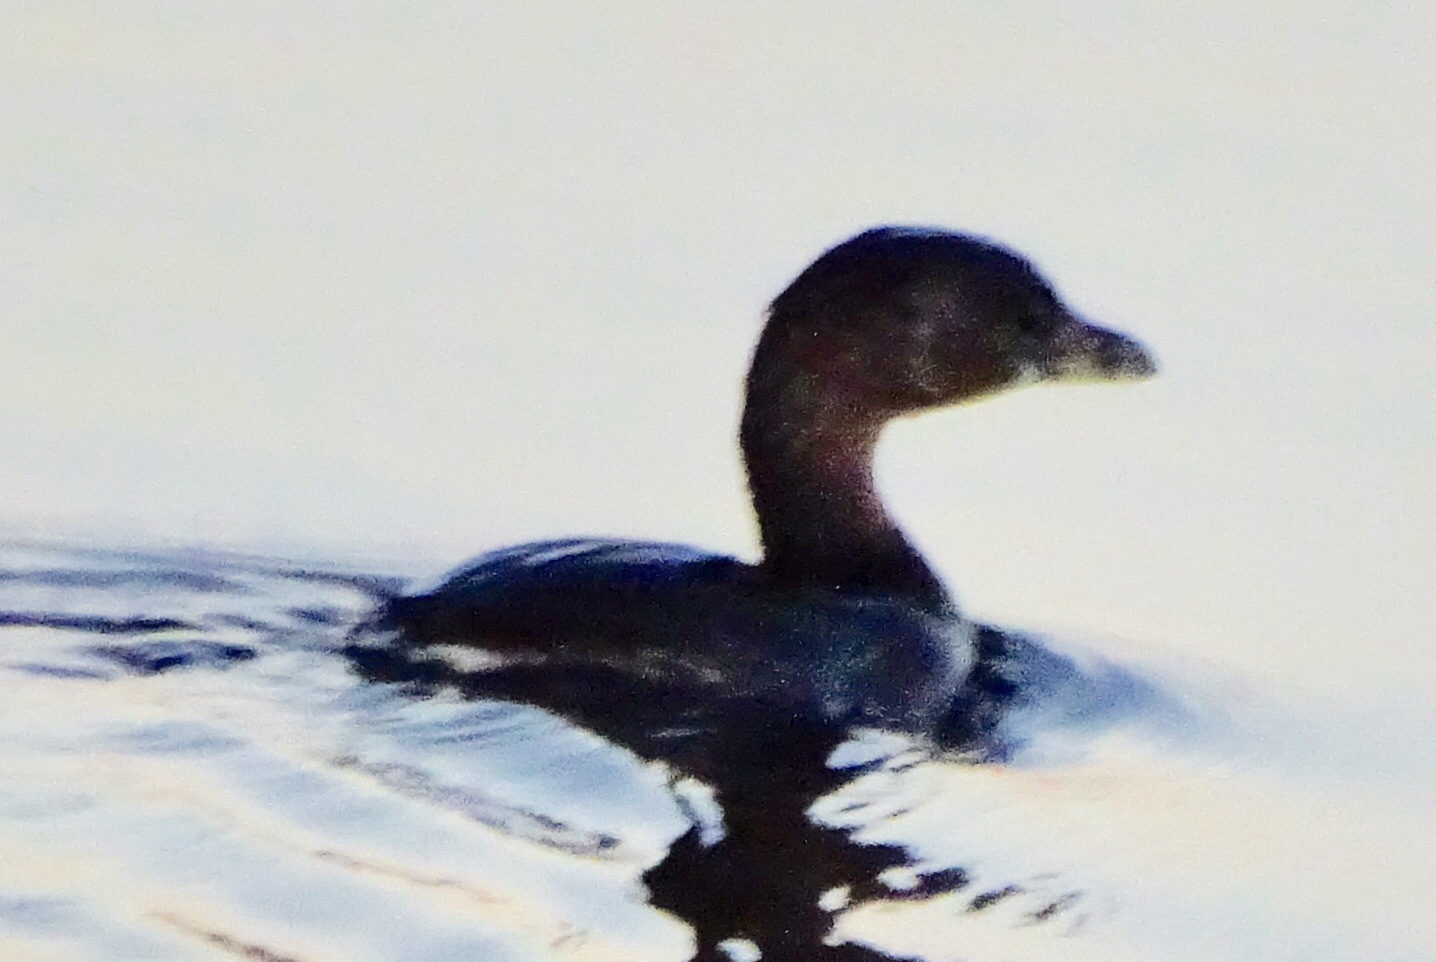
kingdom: Animalia
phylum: Chordata
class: Aves
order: Podicipediformes
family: Podicipedidae
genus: Podilymbus
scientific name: Podilymbus podiceps
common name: Pied-billed grebe
